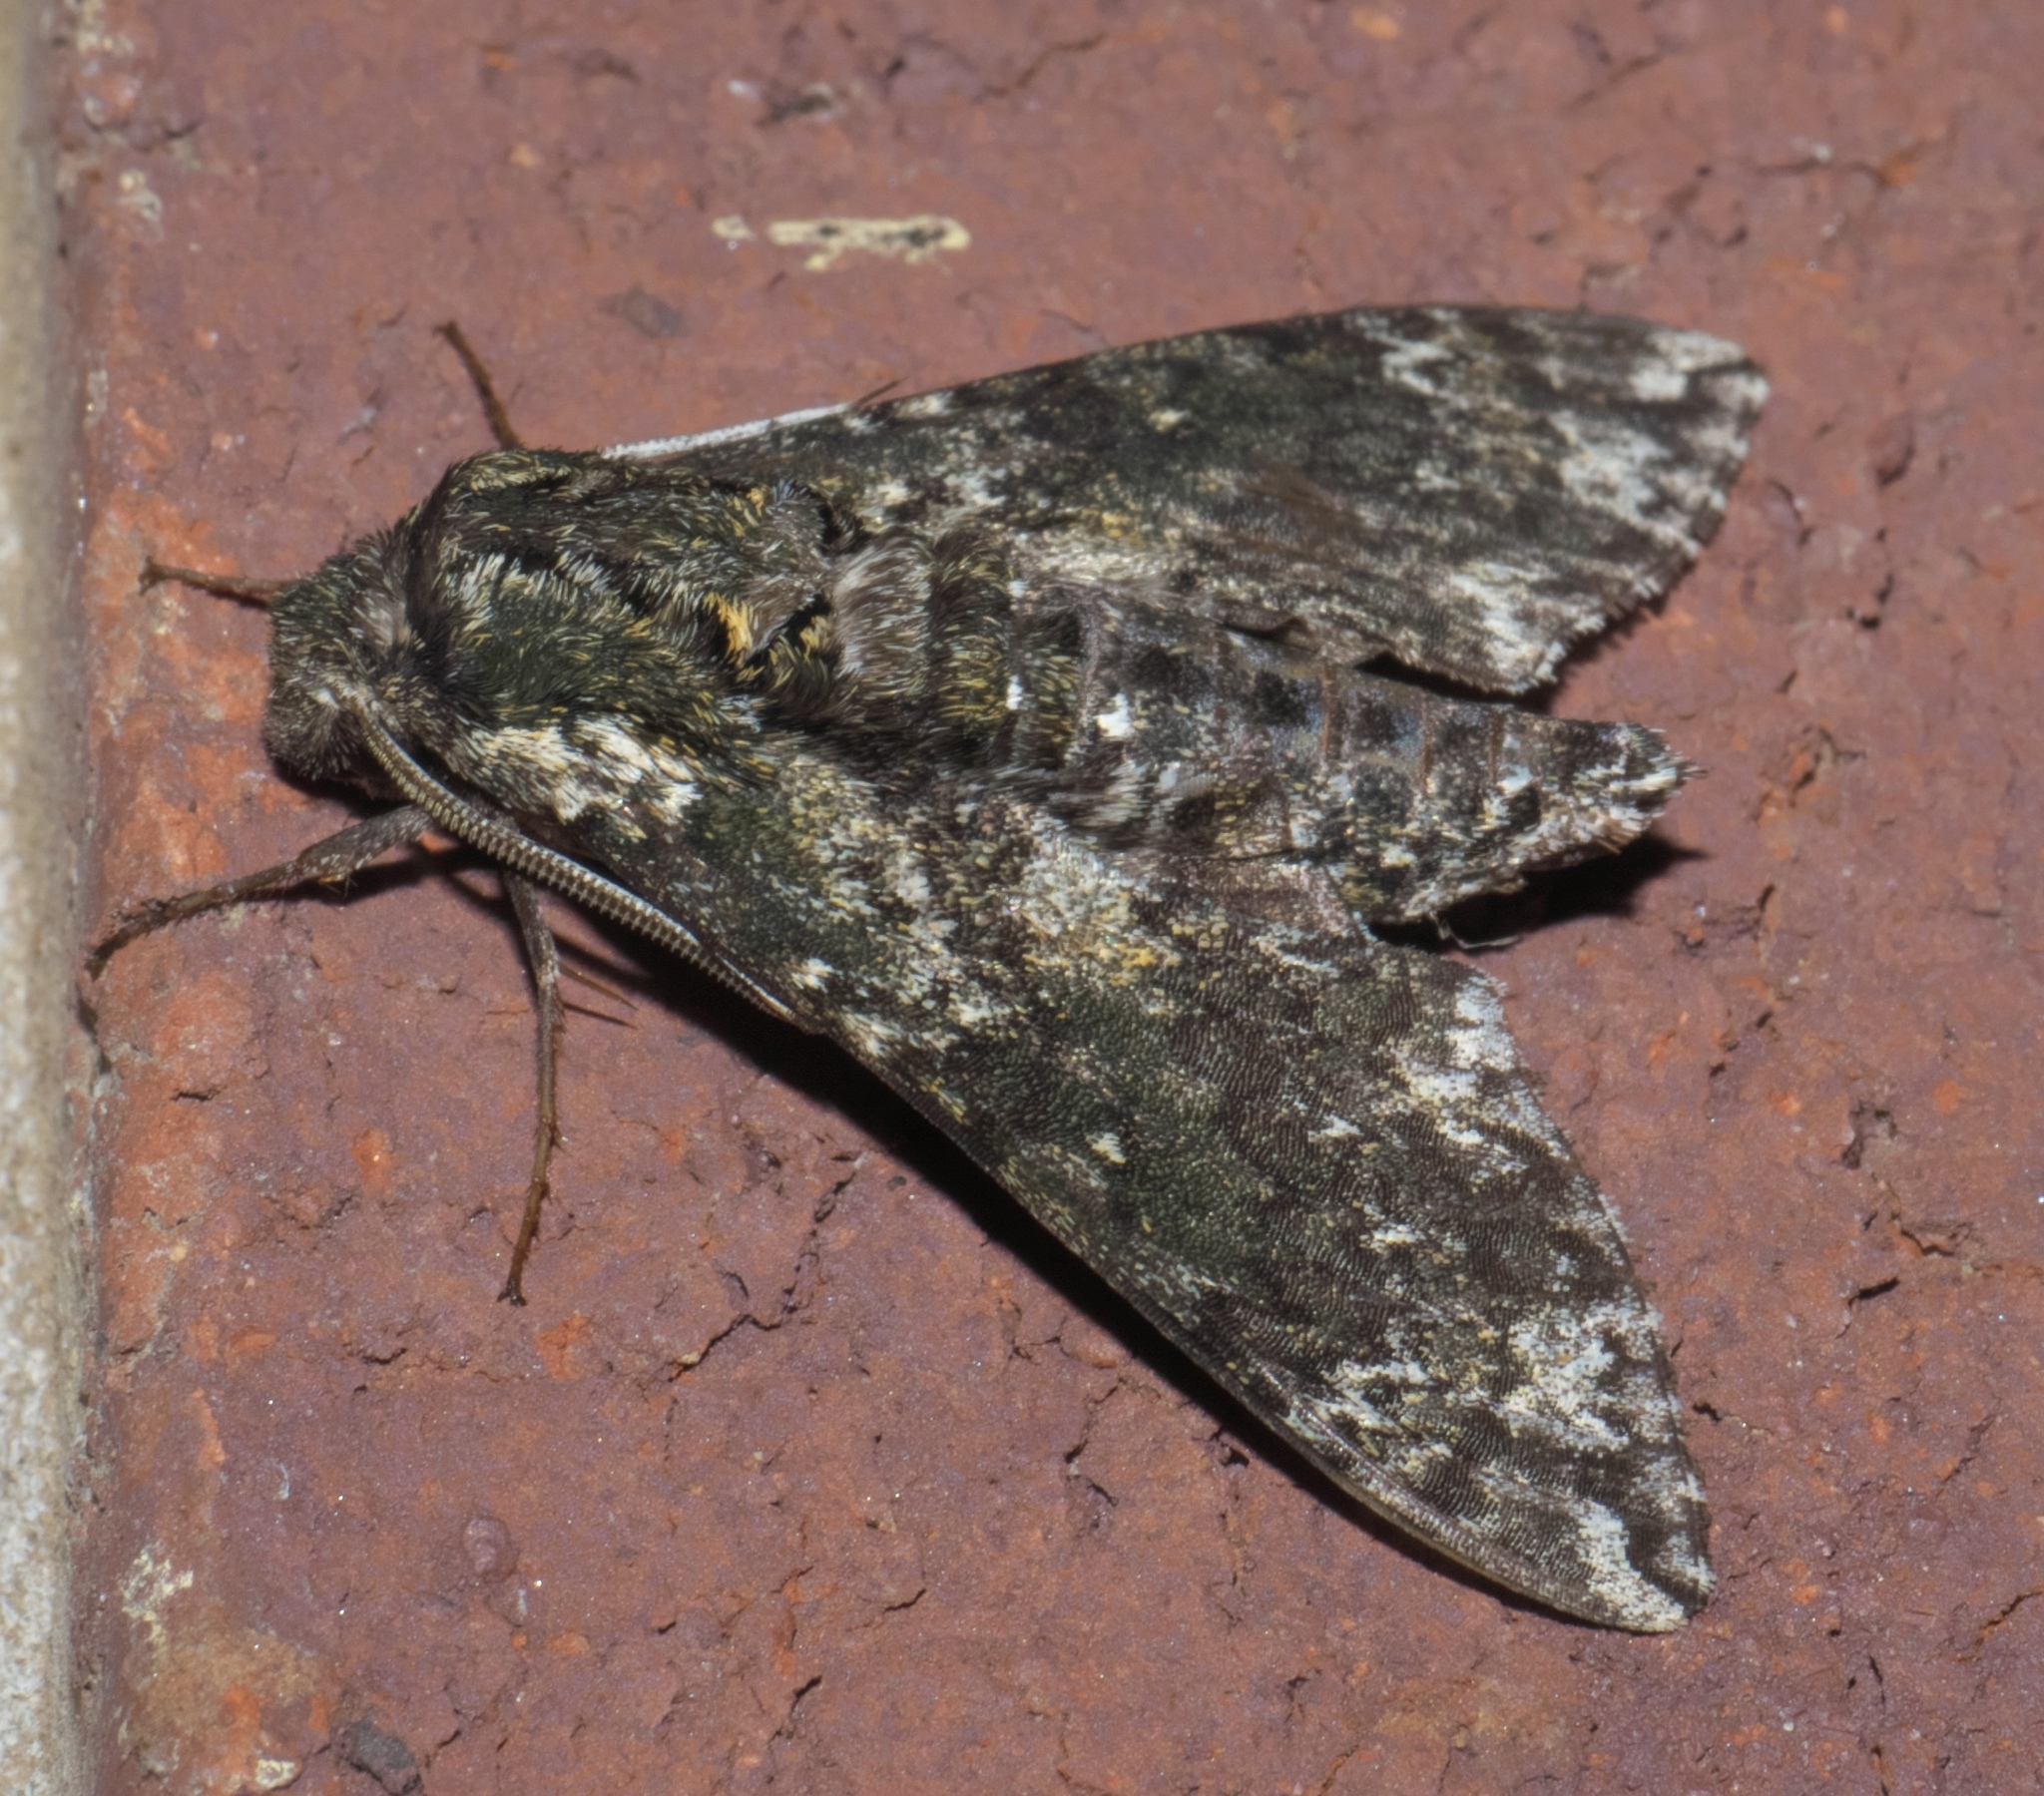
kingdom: Animalia
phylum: Arthropoda
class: Insecta
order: Lepidoptera
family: Sphingidae
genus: Dolba
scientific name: Dolba hyloeus
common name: Pawpaw sphinx
